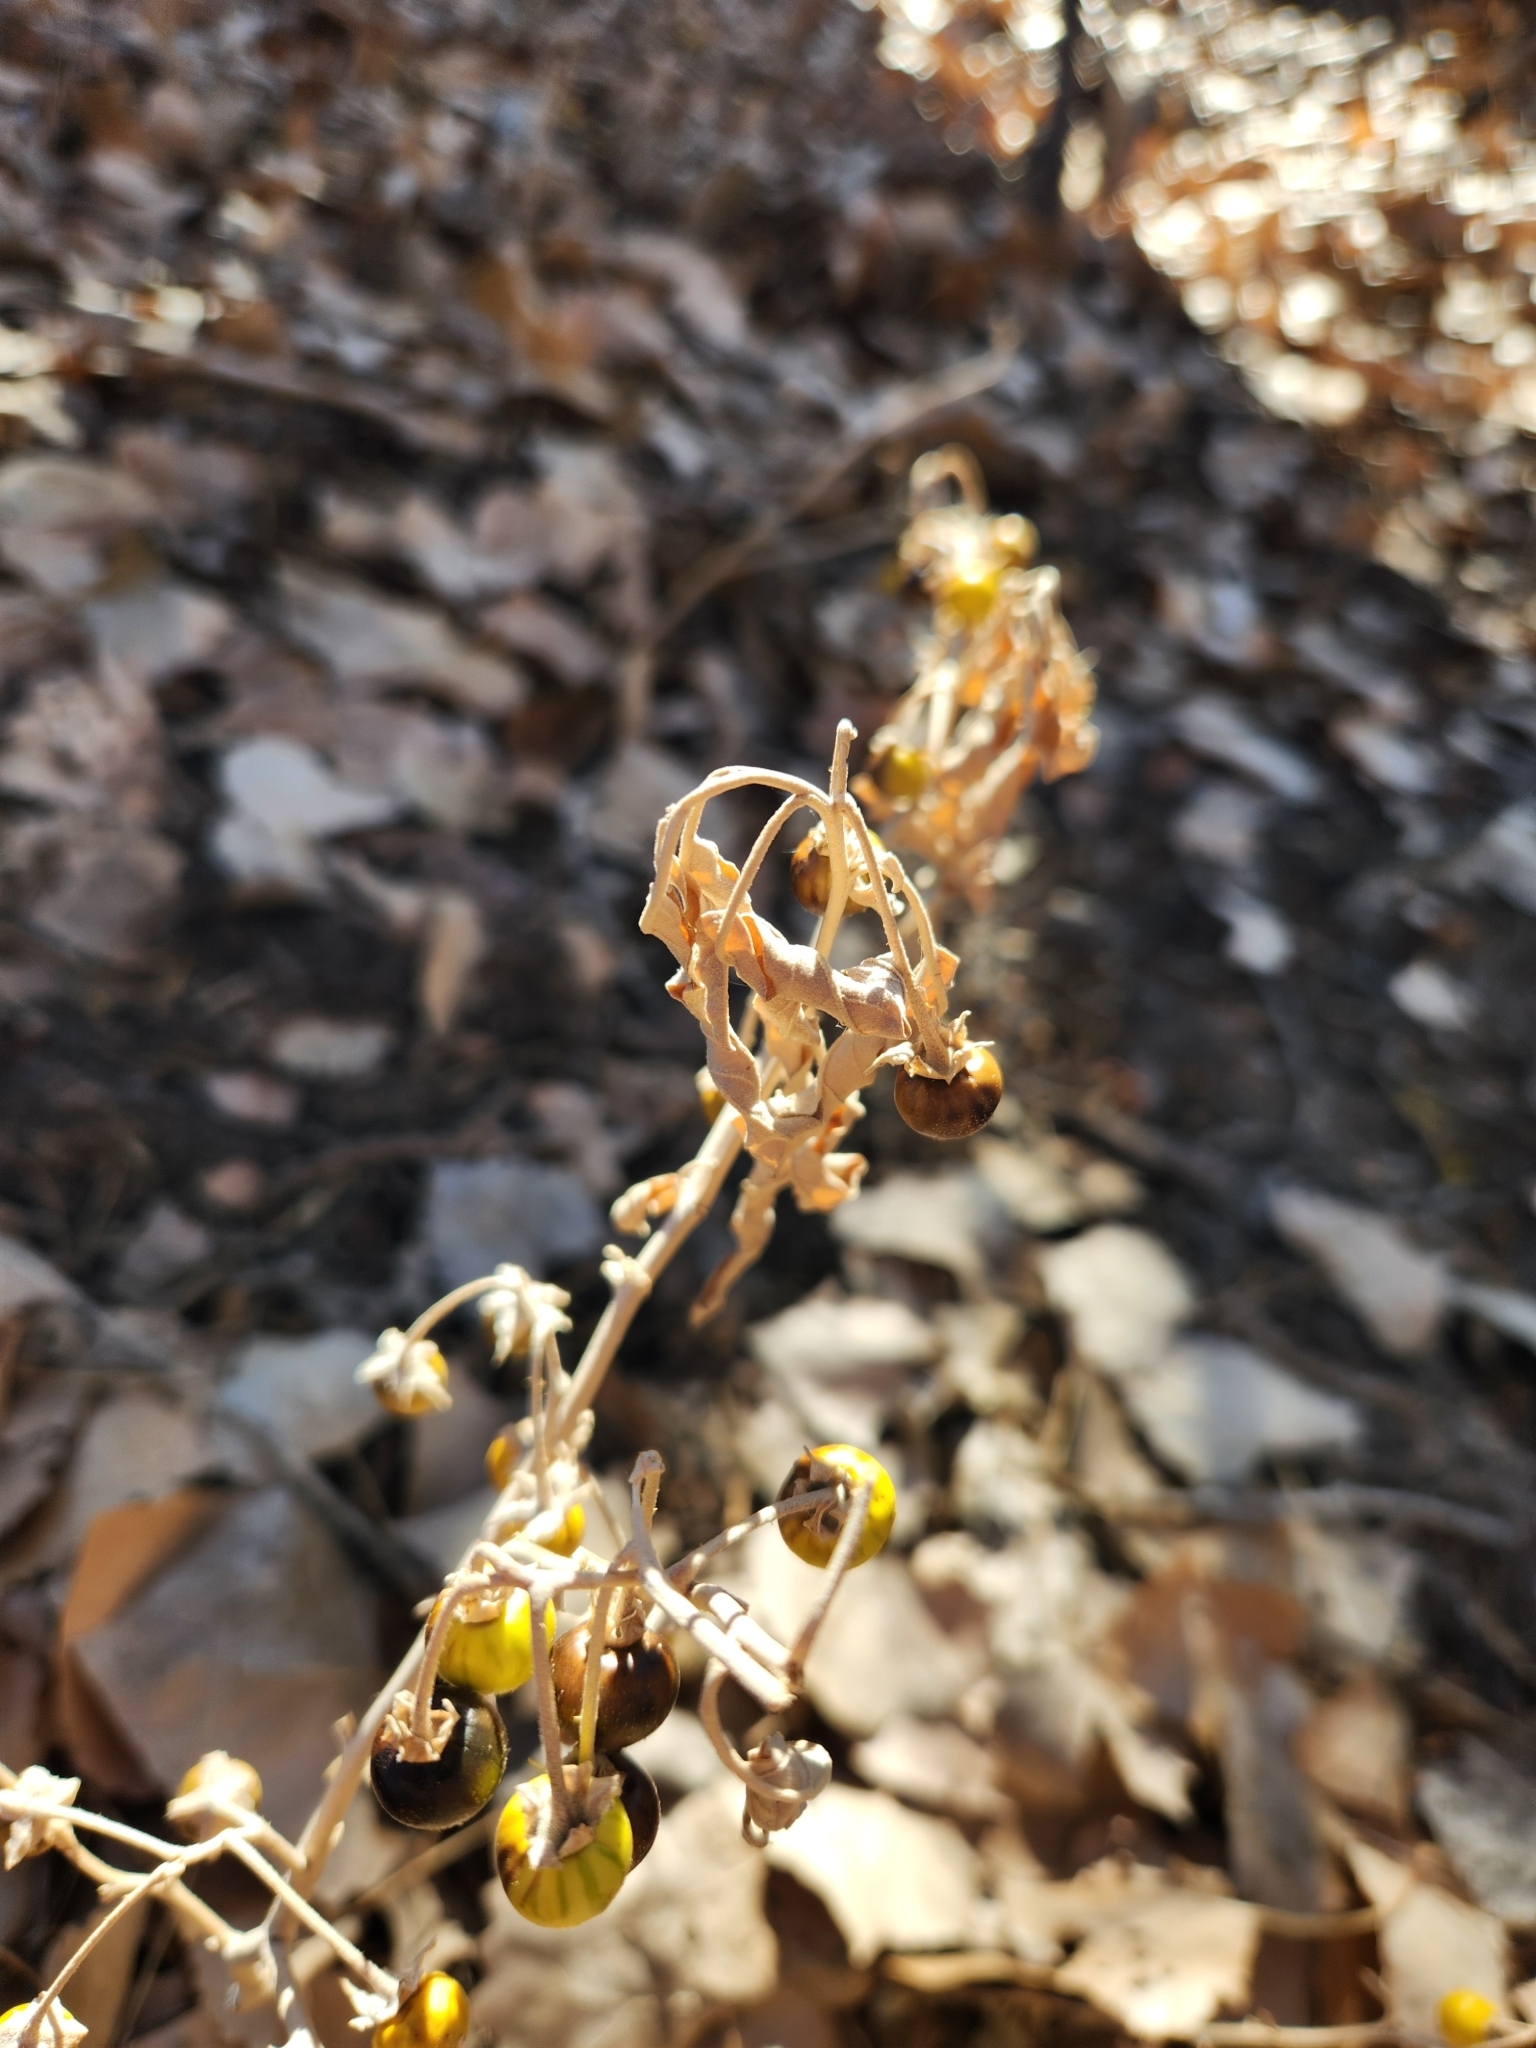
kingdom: Plantae
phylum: Tracheophyta
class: Magnoliopsida
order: Solanales
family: Solanaceae
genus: Solanum
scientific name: Solanum elaeagnifolium
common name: Silverleaf nightshade
